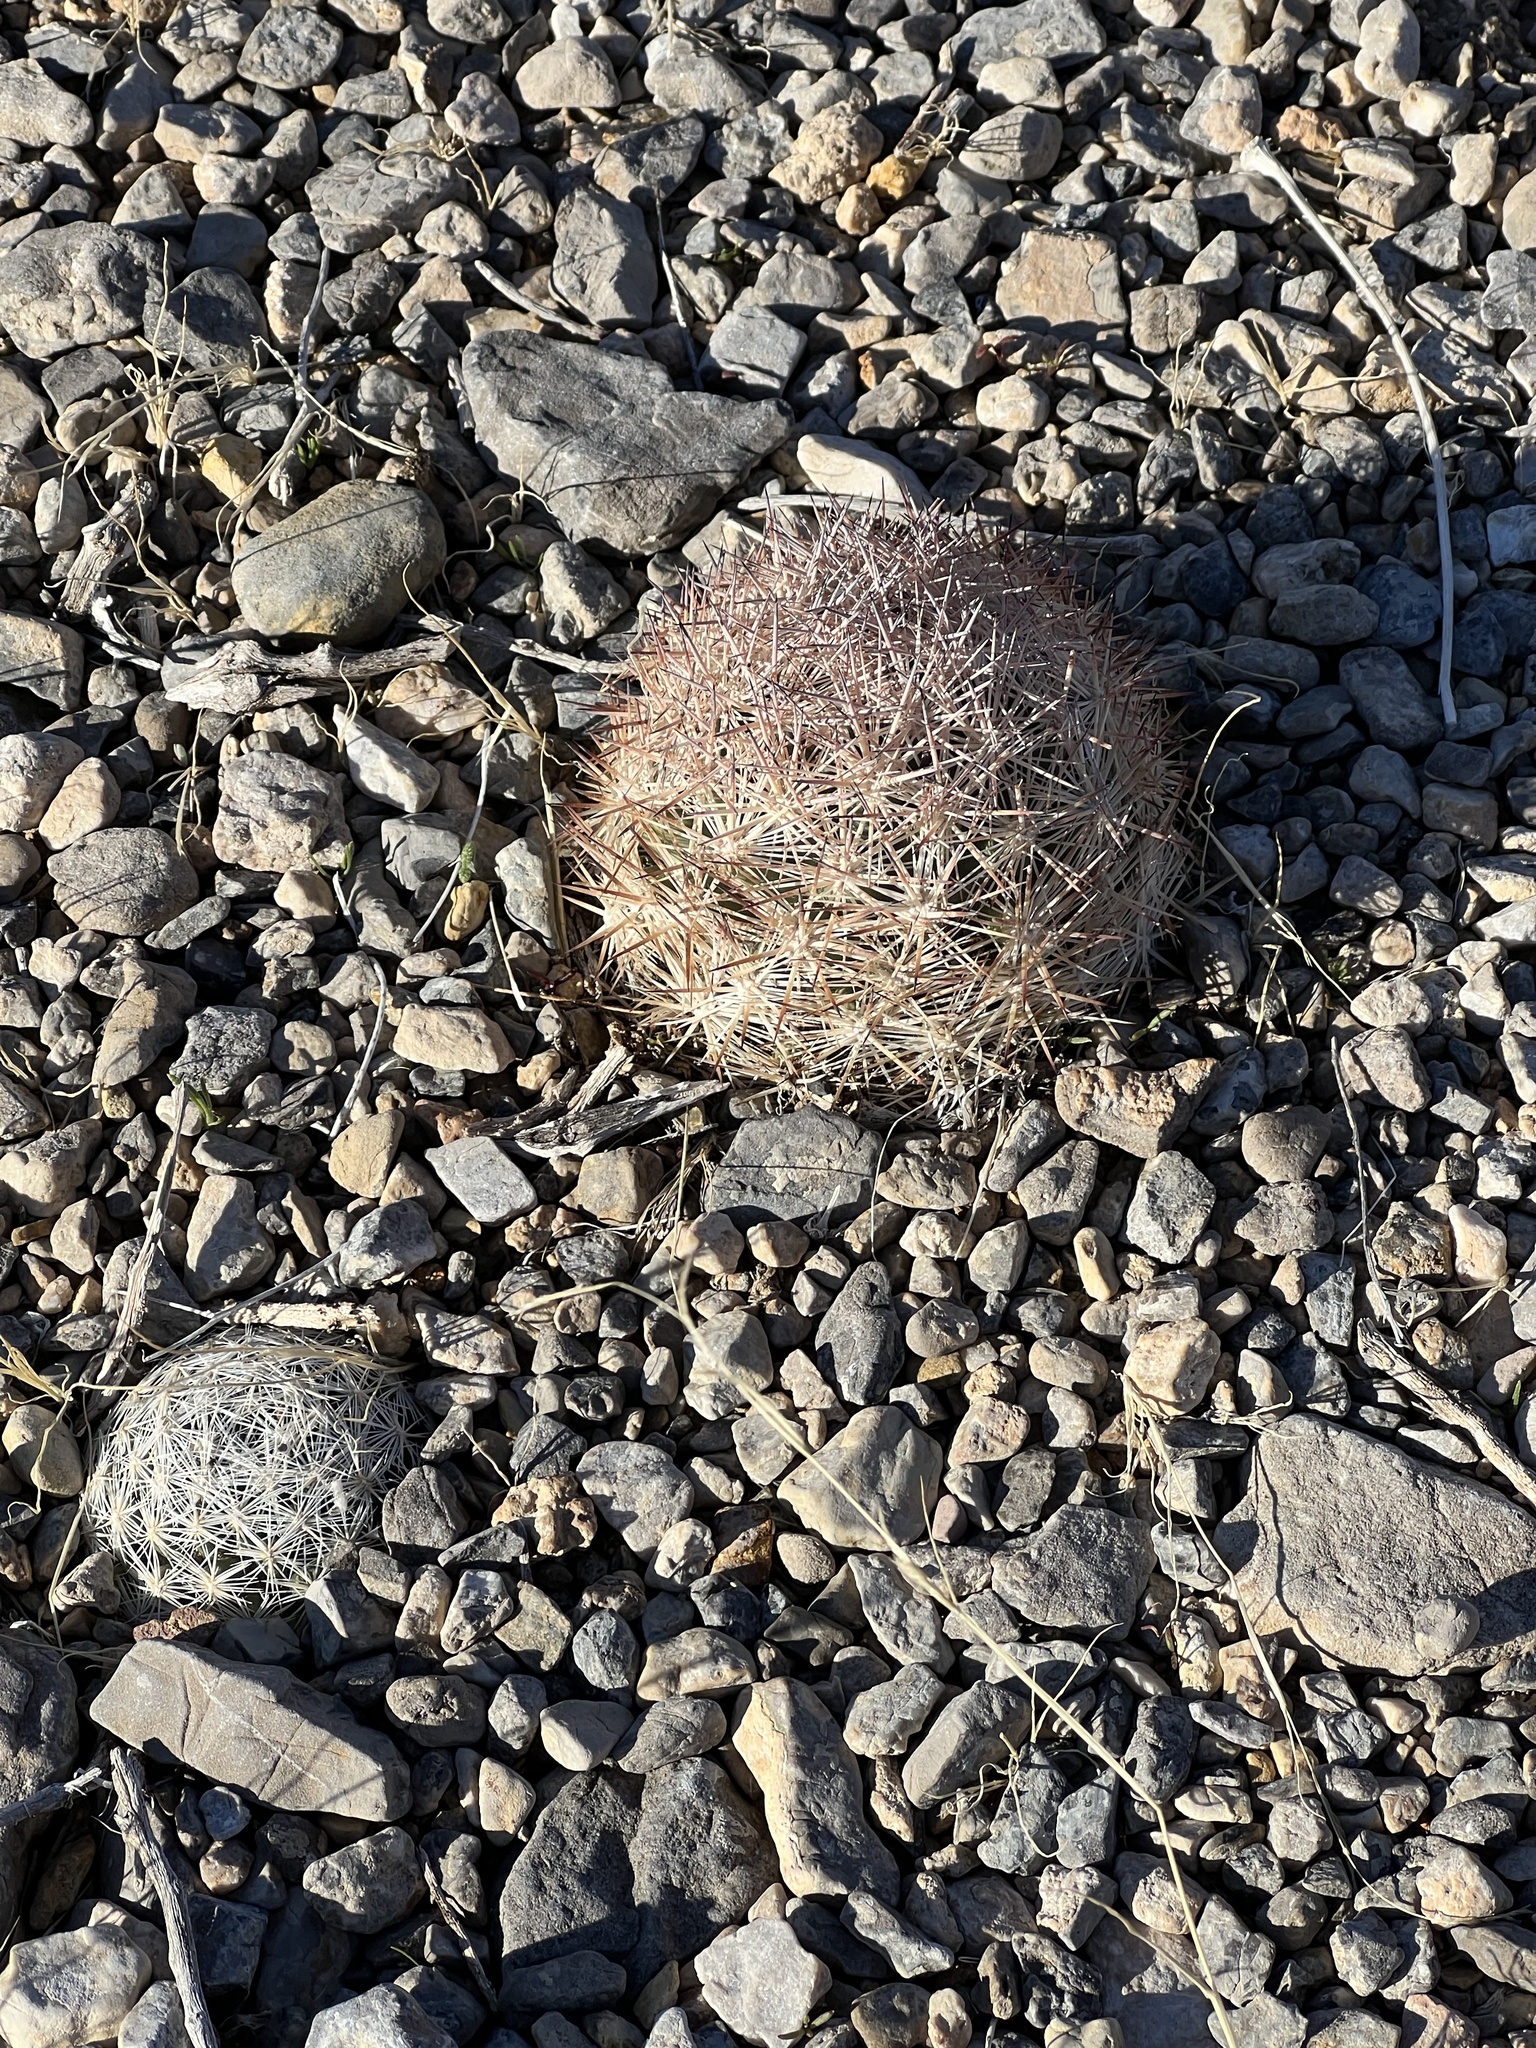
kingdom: Plantae
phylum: Tracheophyta
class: Magnoliopsida
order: Caryophyllales
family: Cactaceae
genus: Pelecyphora
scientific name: Pelecyphora dasyacantha
